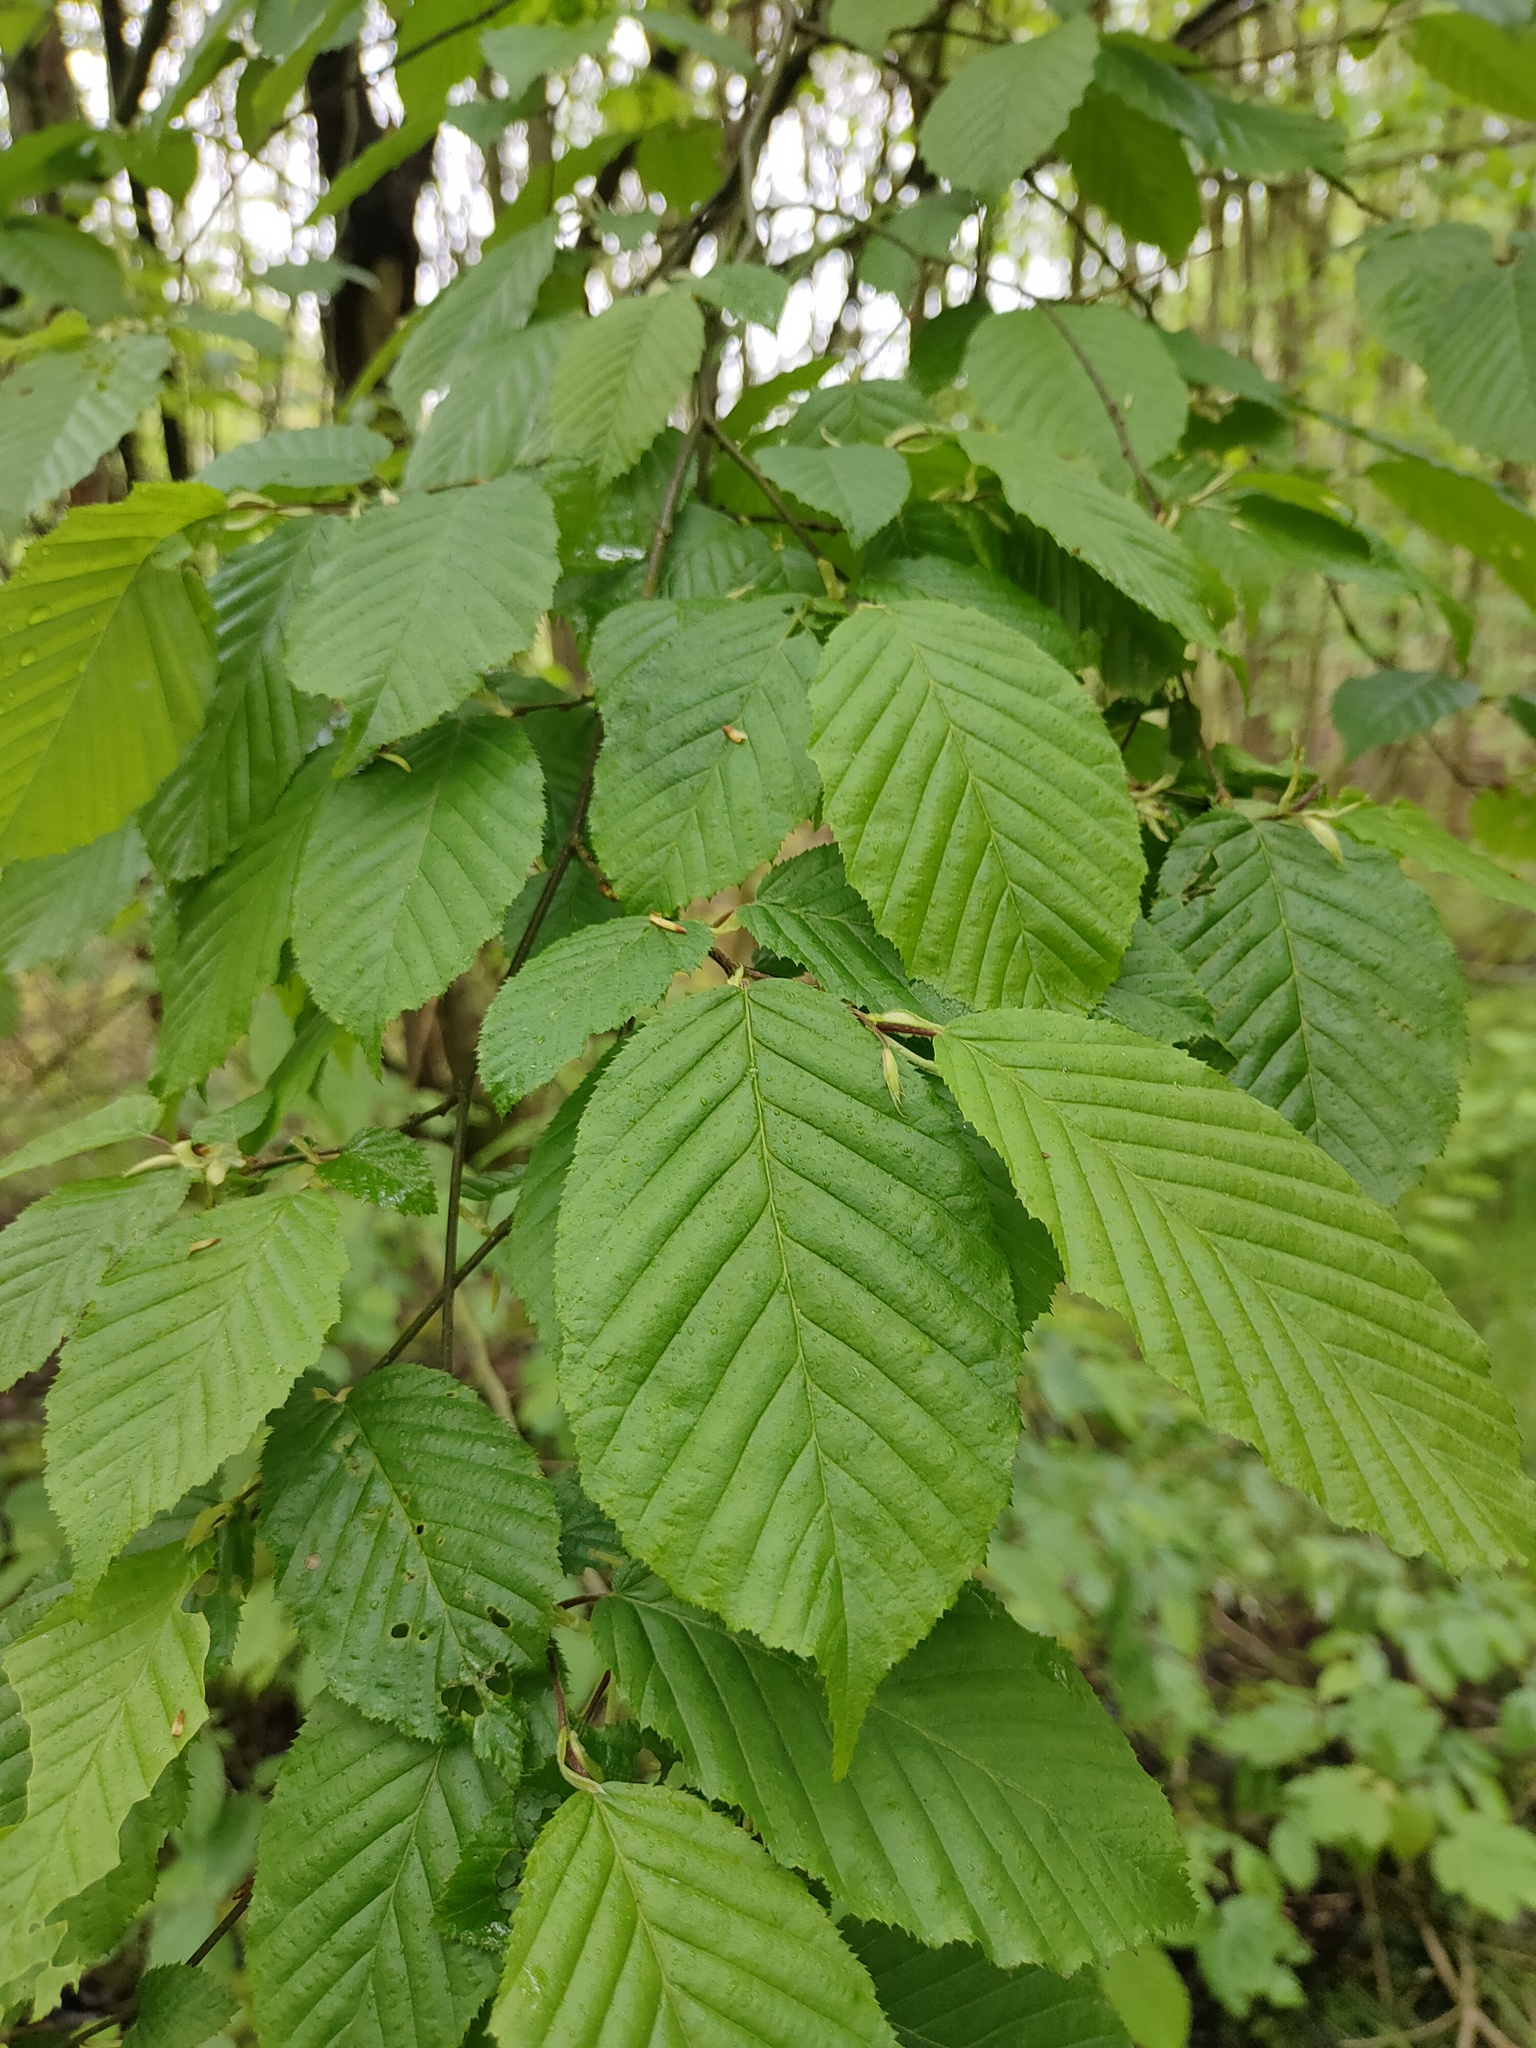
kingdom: Plantae
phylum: Tracheophyta
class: Magnoliopsida
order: Fagales
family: Betulaceae
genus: Carpinus
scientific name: Carpinus betulus
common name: Hornbeam
